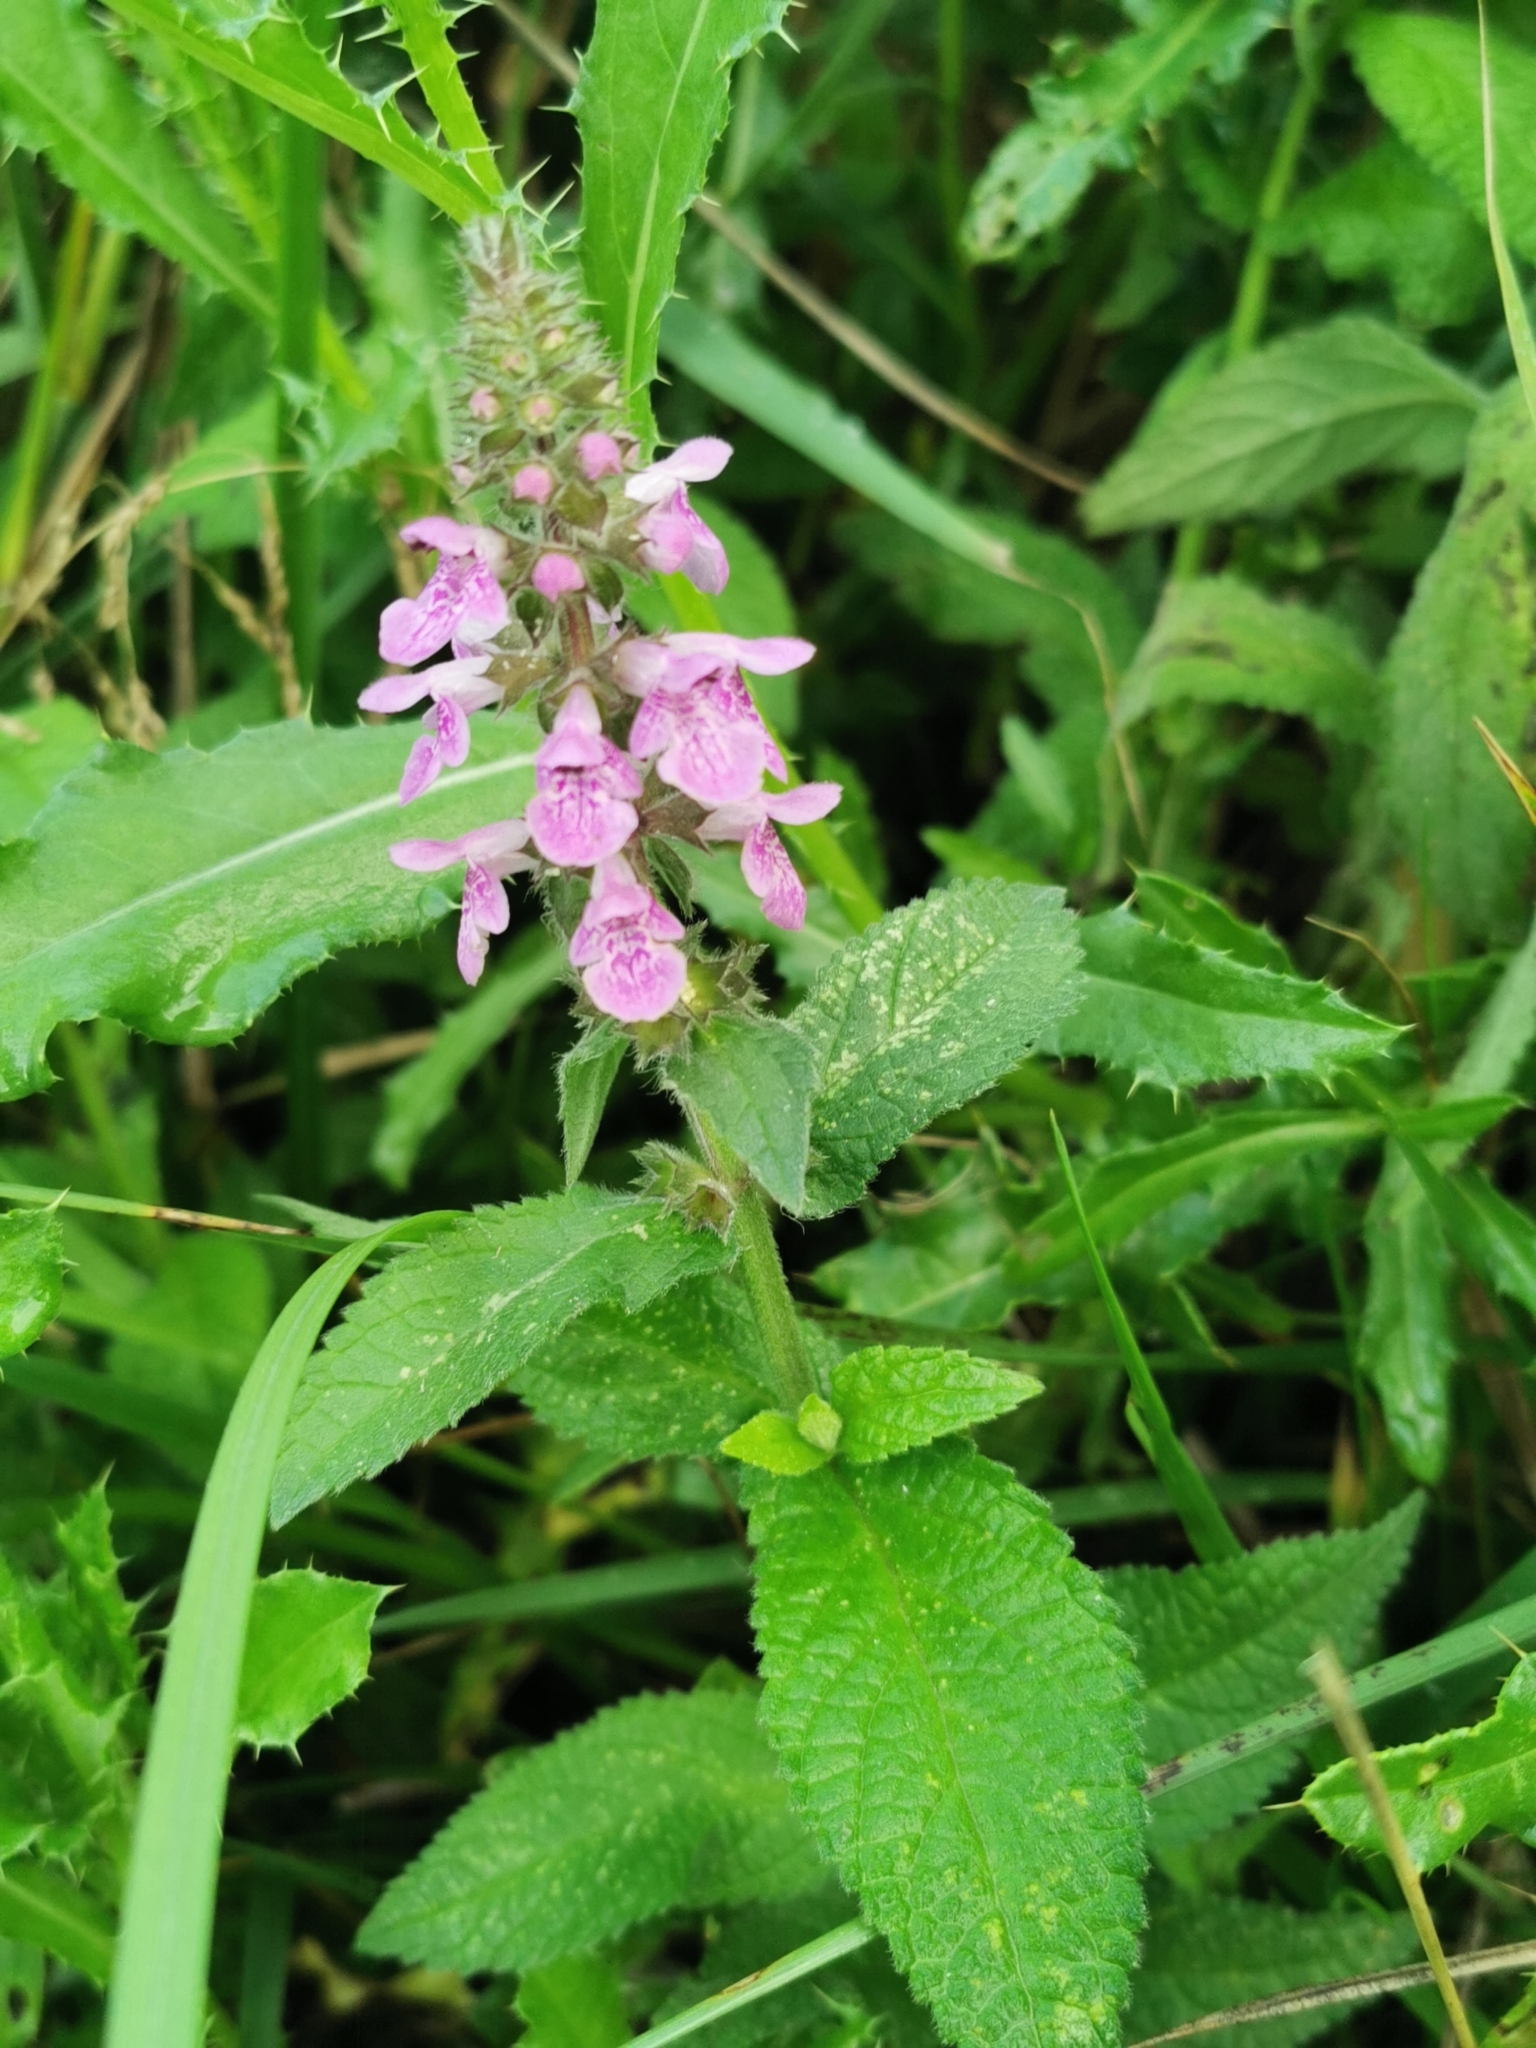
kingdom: Plantae
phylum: Tracheophyta
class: Magnoliopsida
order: Lamiales
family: Lamiaceae
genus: Stachys
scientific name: Stachys palustris
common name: Marsh woundwort
